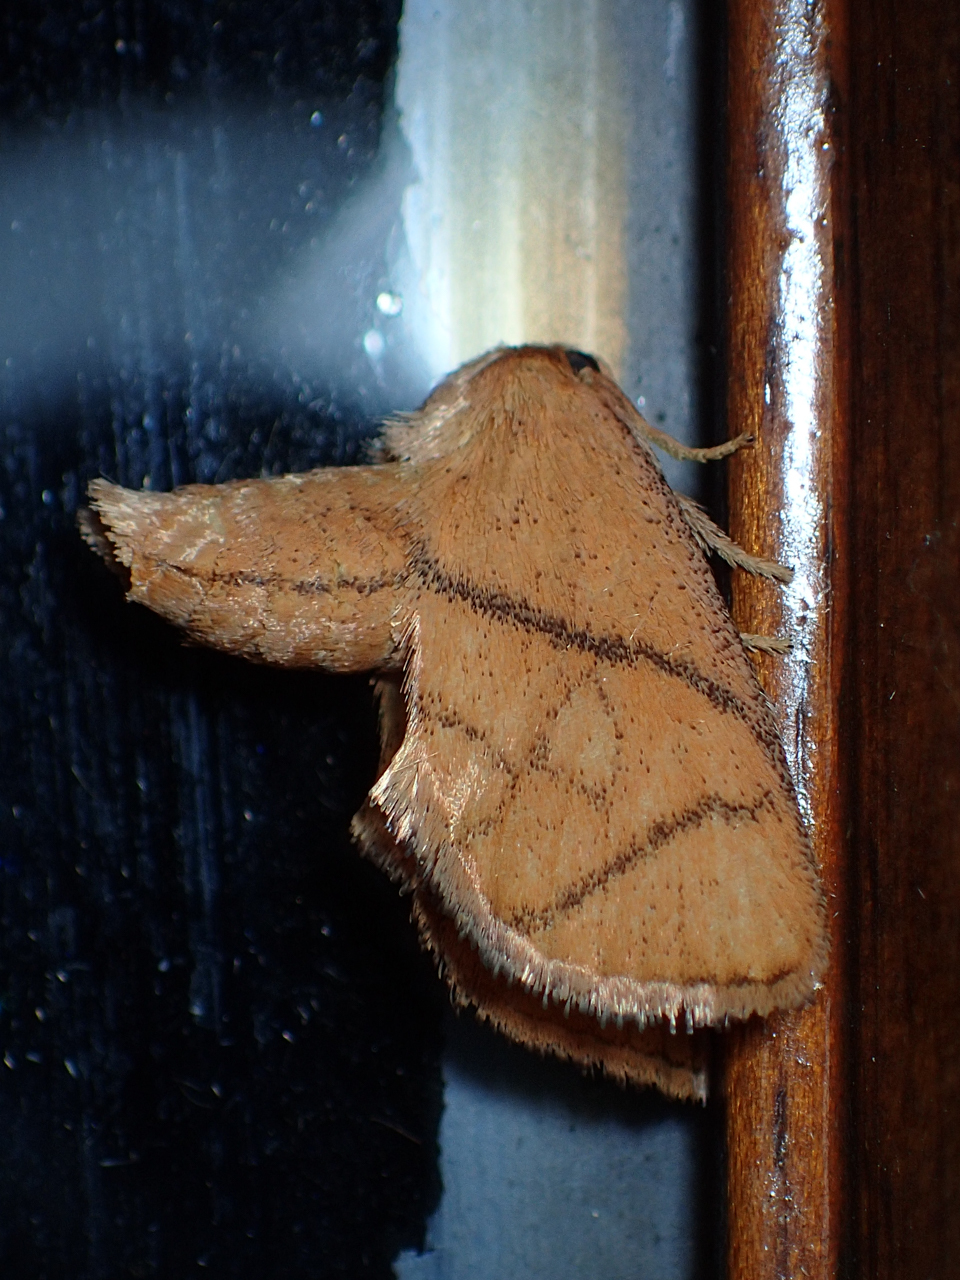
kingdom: Animalia
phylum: Arthropoda
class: Insecta
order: Lepidoptera
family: Limacodidae
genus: Apoda
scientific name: Apoda y-inversa
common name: Yellow-collared slug moth
